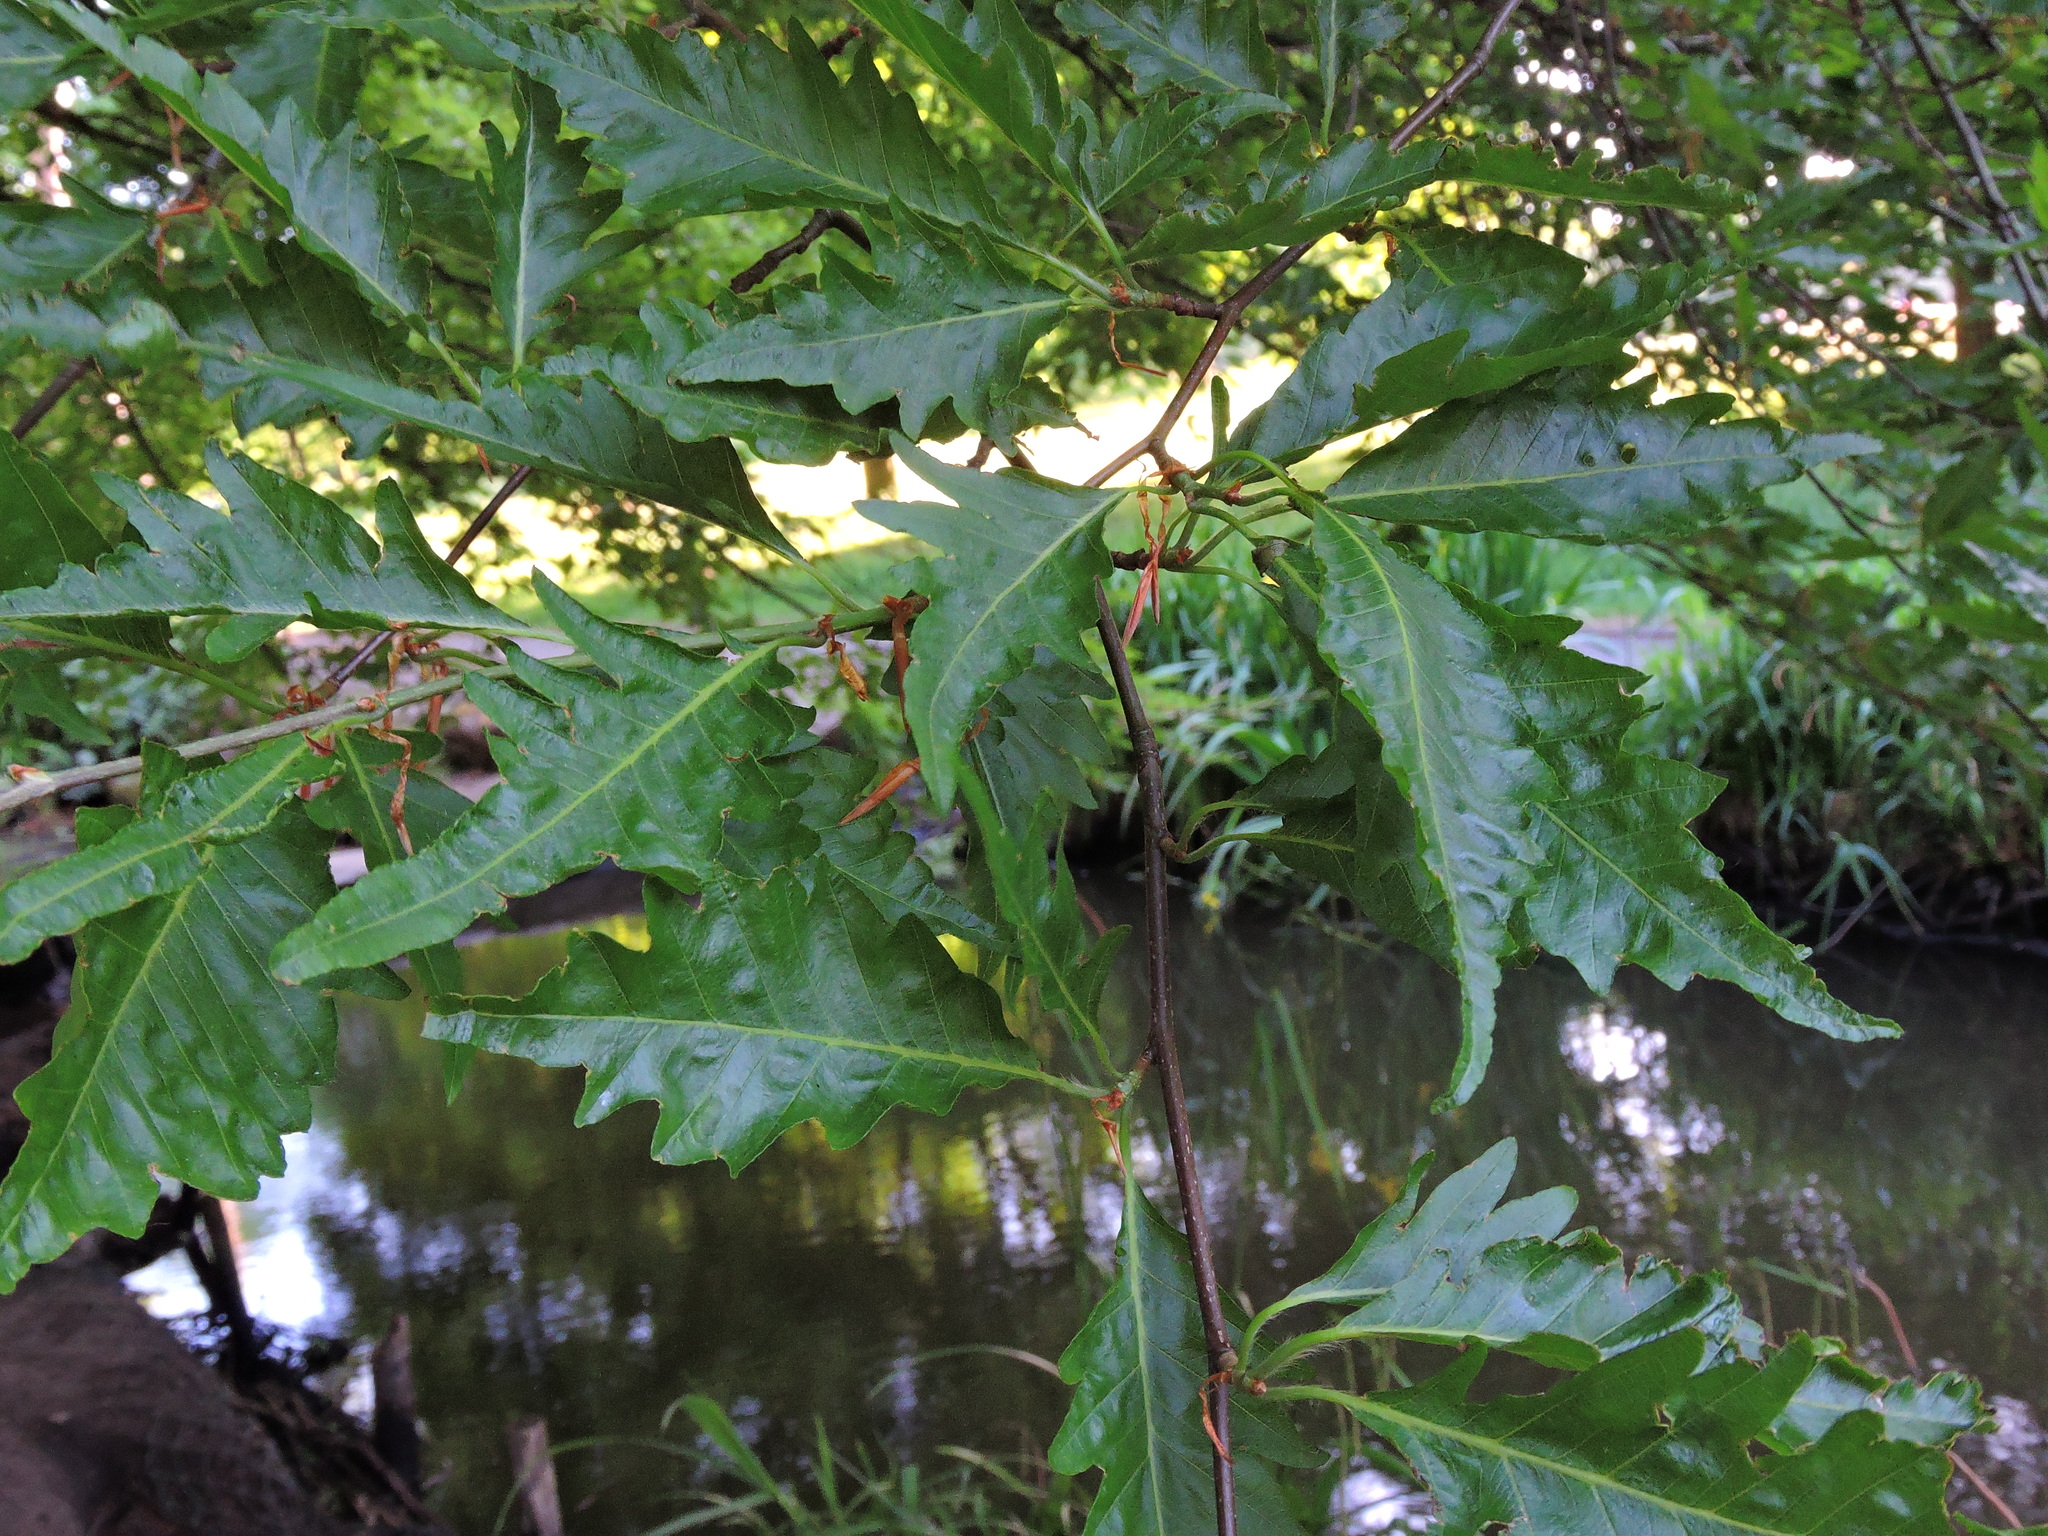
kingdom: Plantae
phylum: Tracheophyta
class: Magnoliopsida
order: Fagales
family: Fagaceae
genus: Fagus
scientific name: Fagus sylvatica
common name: Beech
